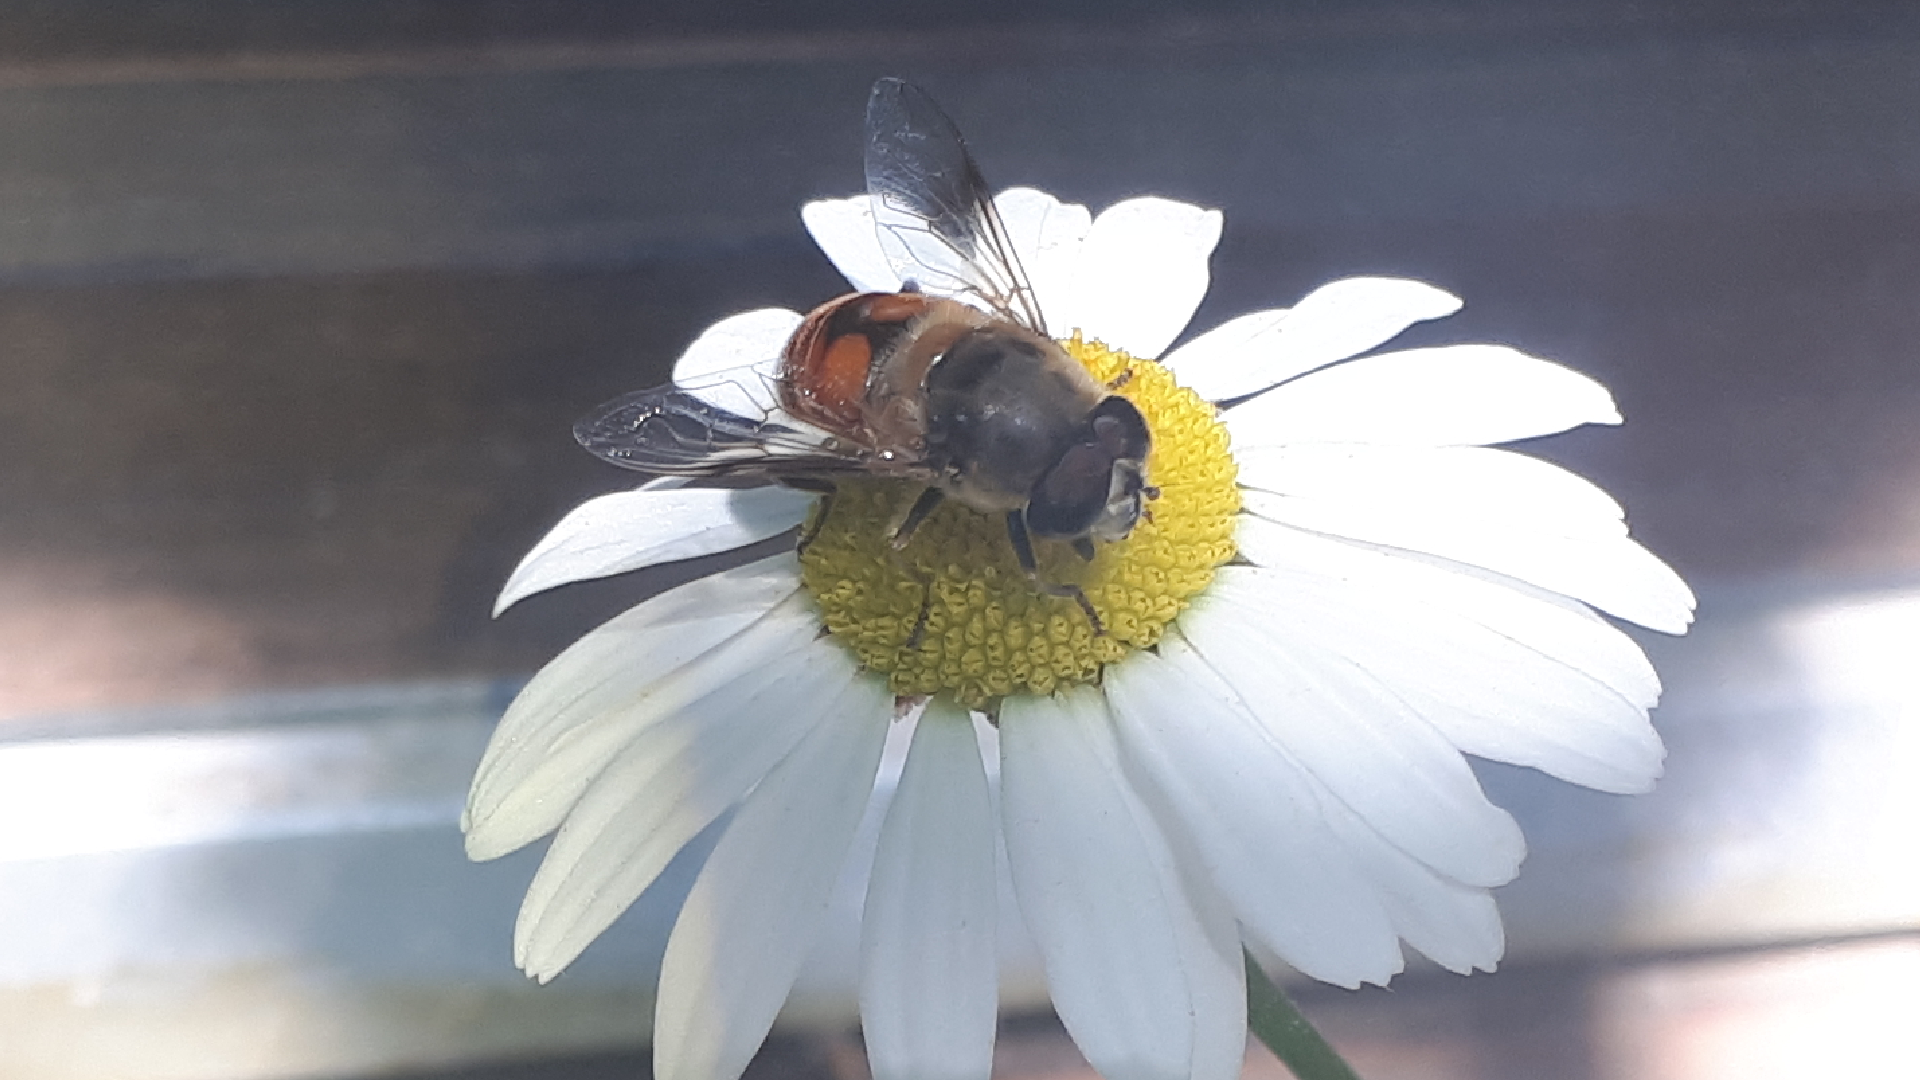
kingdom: Animalia
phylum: Arthropoda
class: Insecta
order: Diptera
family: Syrphidae
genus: Eristalis
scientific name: Eristalis tenax
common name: Drone fly
